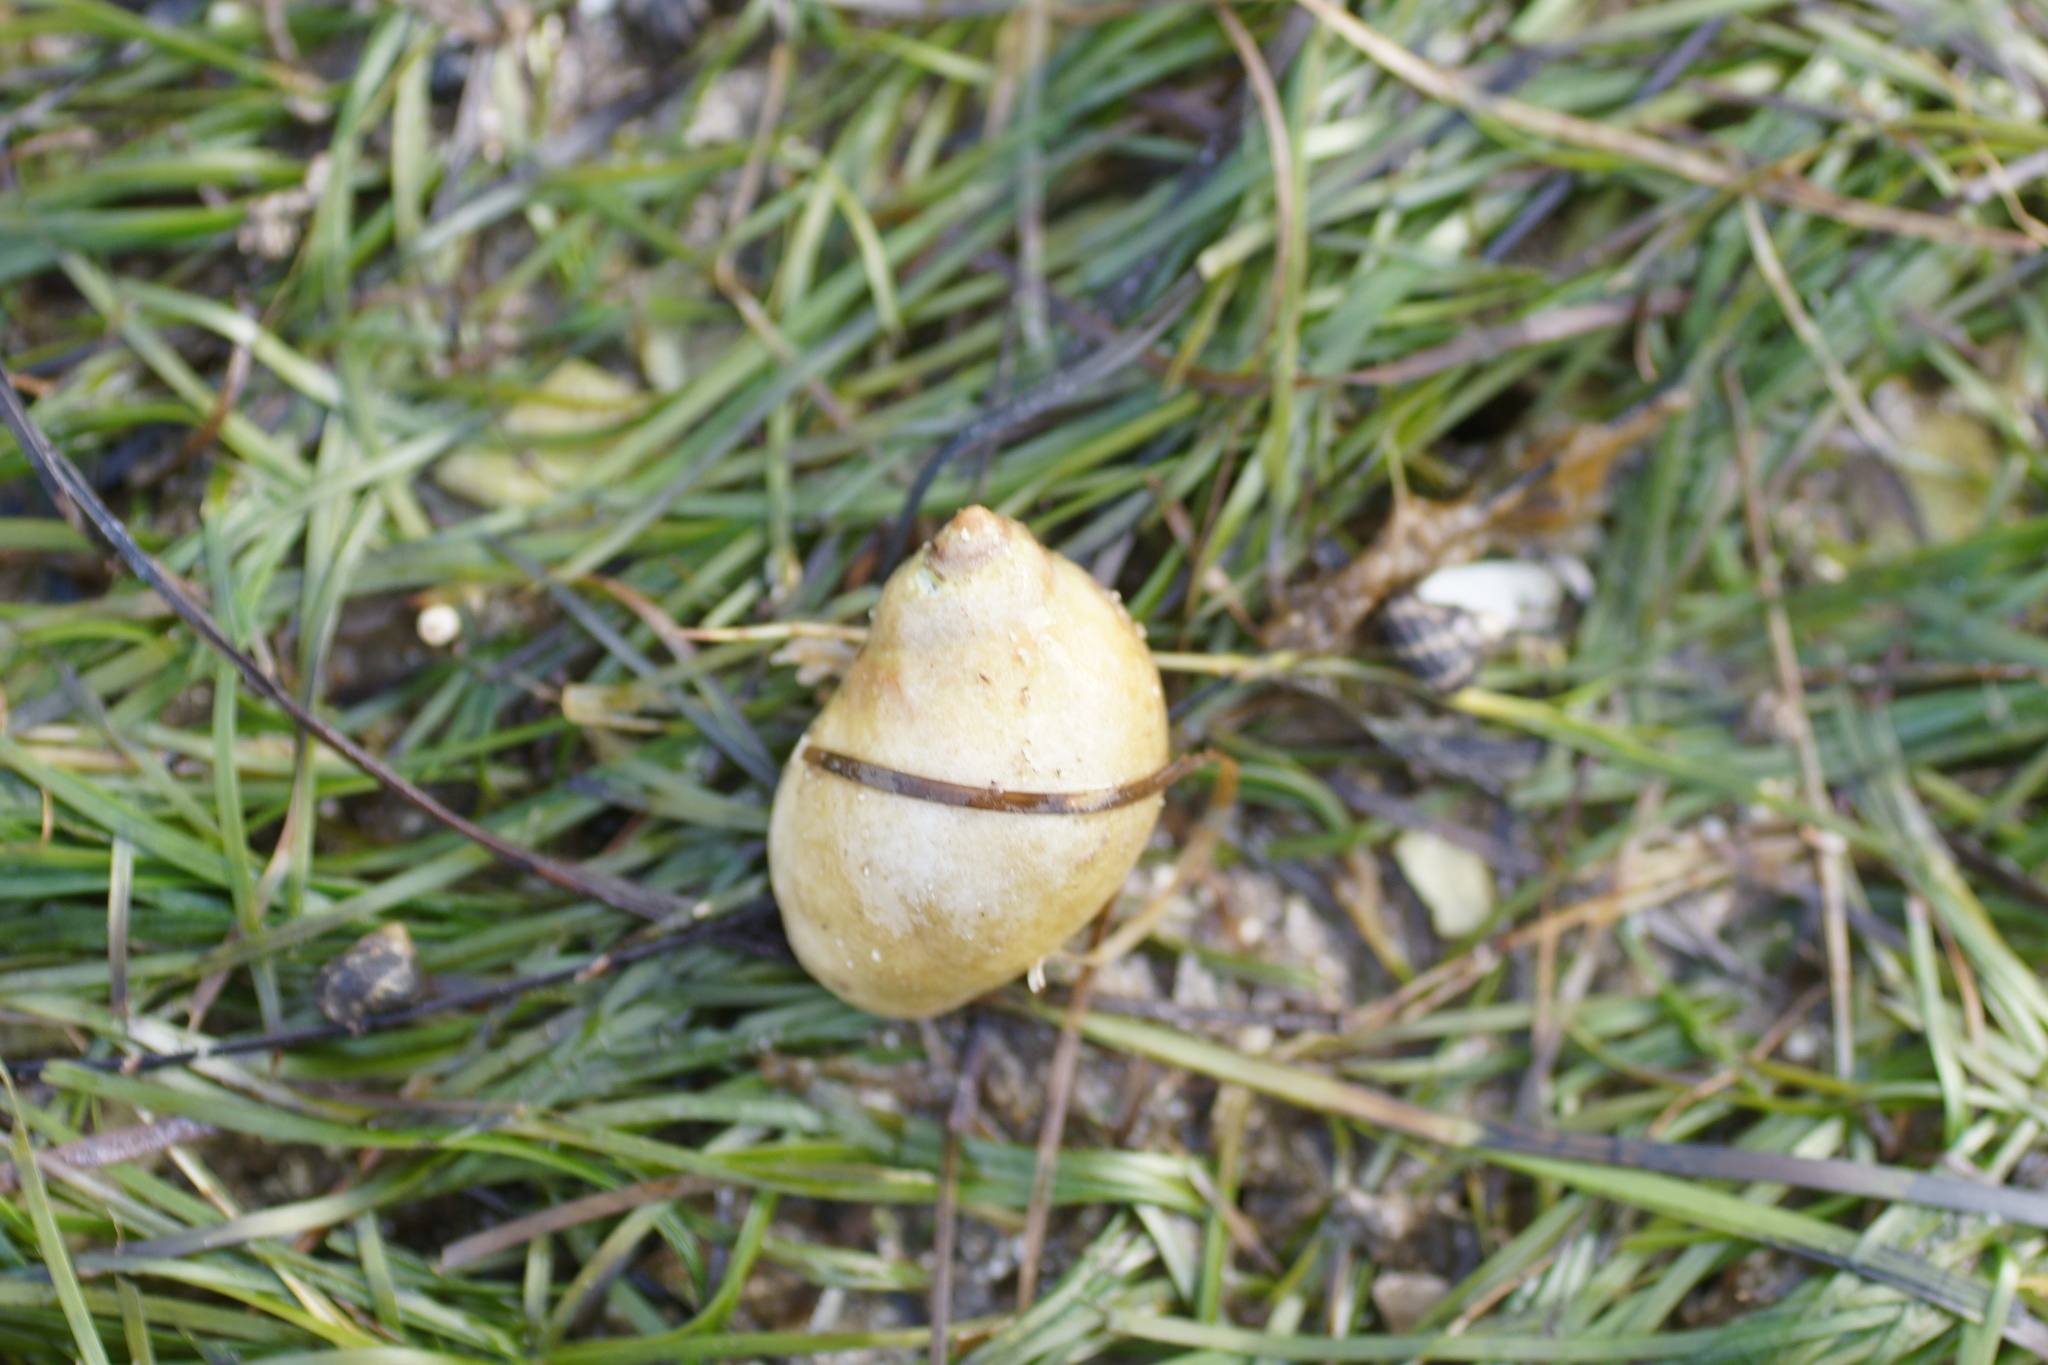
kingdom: Animalia
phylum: Mollusca
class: Gastropoda
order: Littorinimorpha
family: Naticidae
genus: Conuber
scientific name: Conuber conicum
